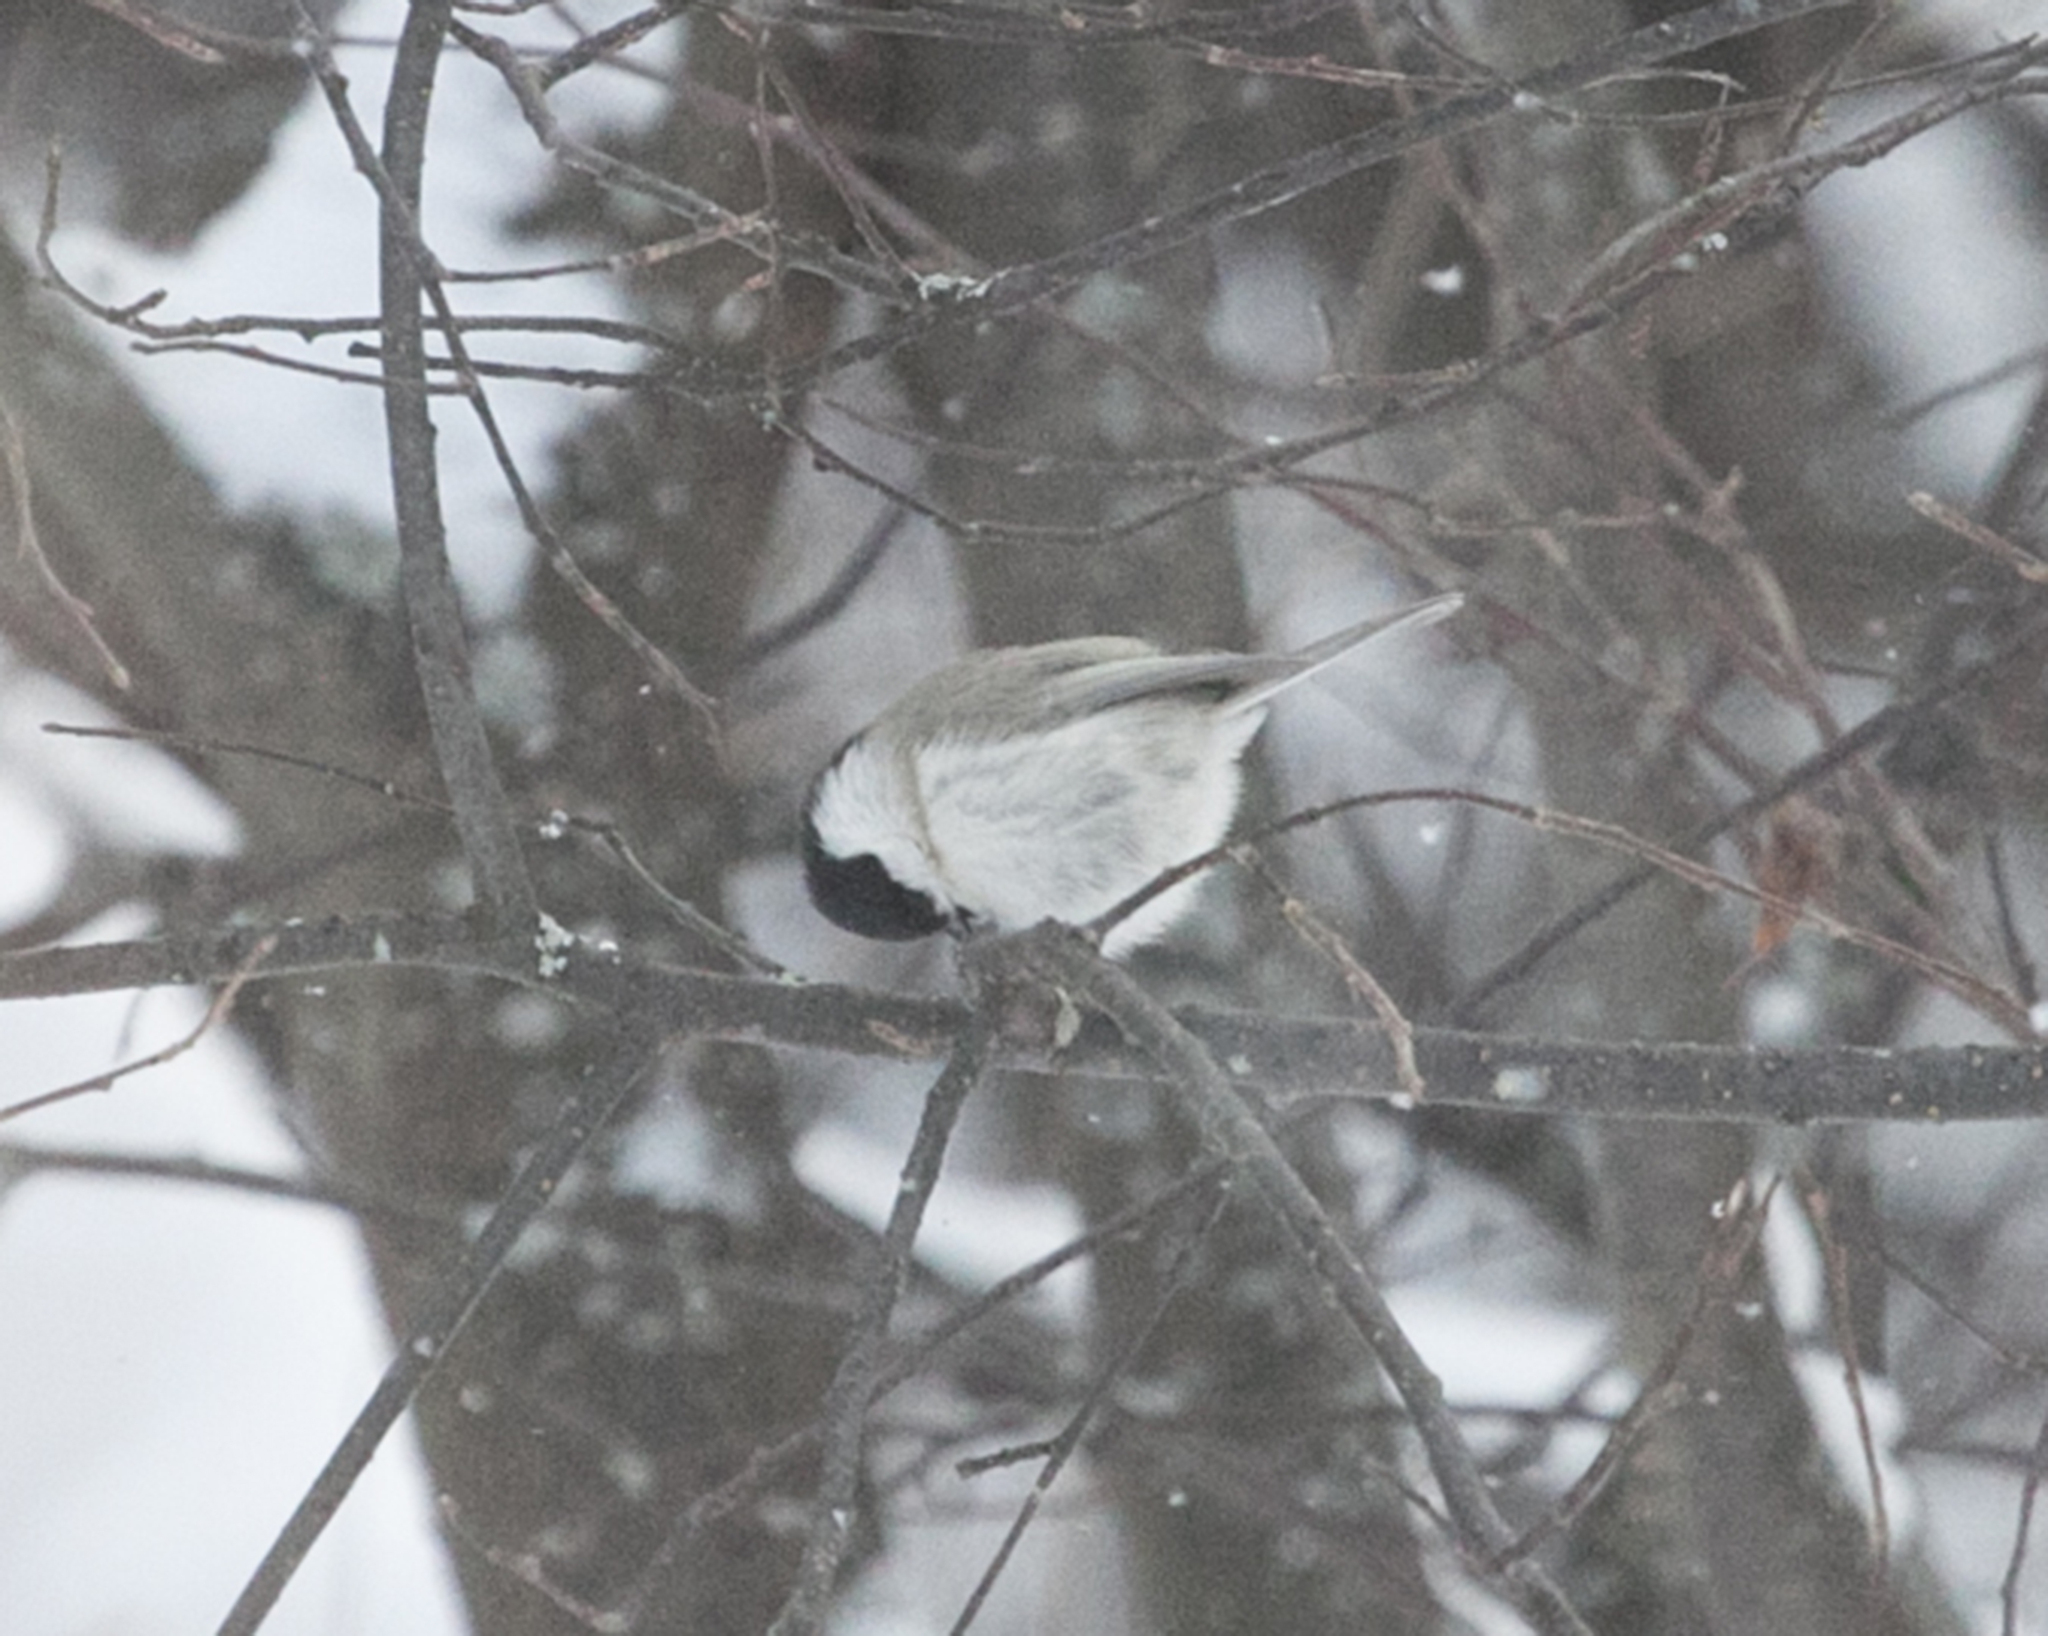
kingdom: Animalia
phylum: Chordata
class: Aves
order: Passeriformes
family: Paridae
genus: Poecile
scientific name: Poecile montanus
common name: Willow tit
